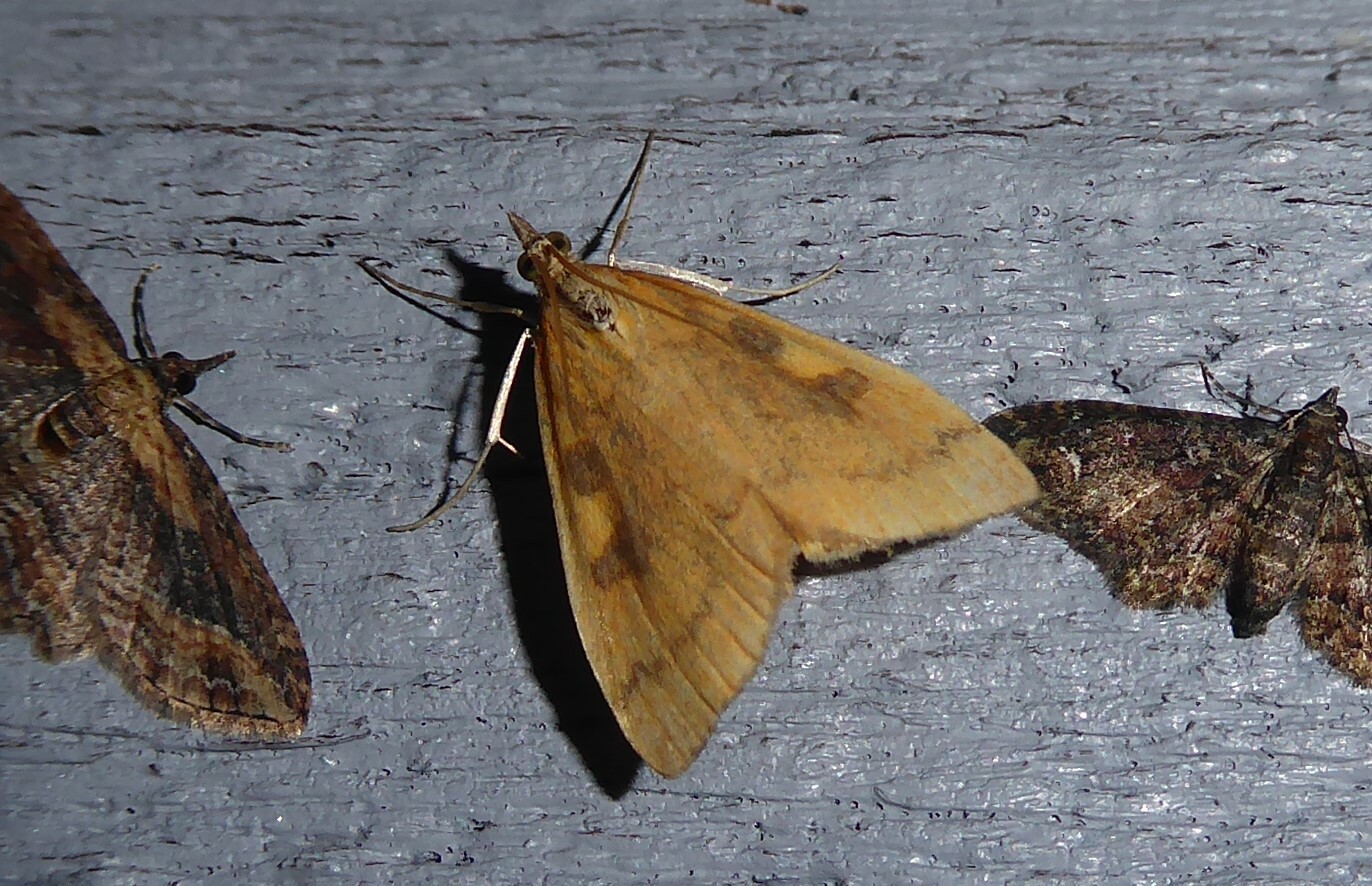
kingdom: Animalia
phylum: Arthropoda
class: Insecta
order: Lepidoptera
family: Crambidae
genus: Udea
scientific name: Udea Mnesictena flavidalis
